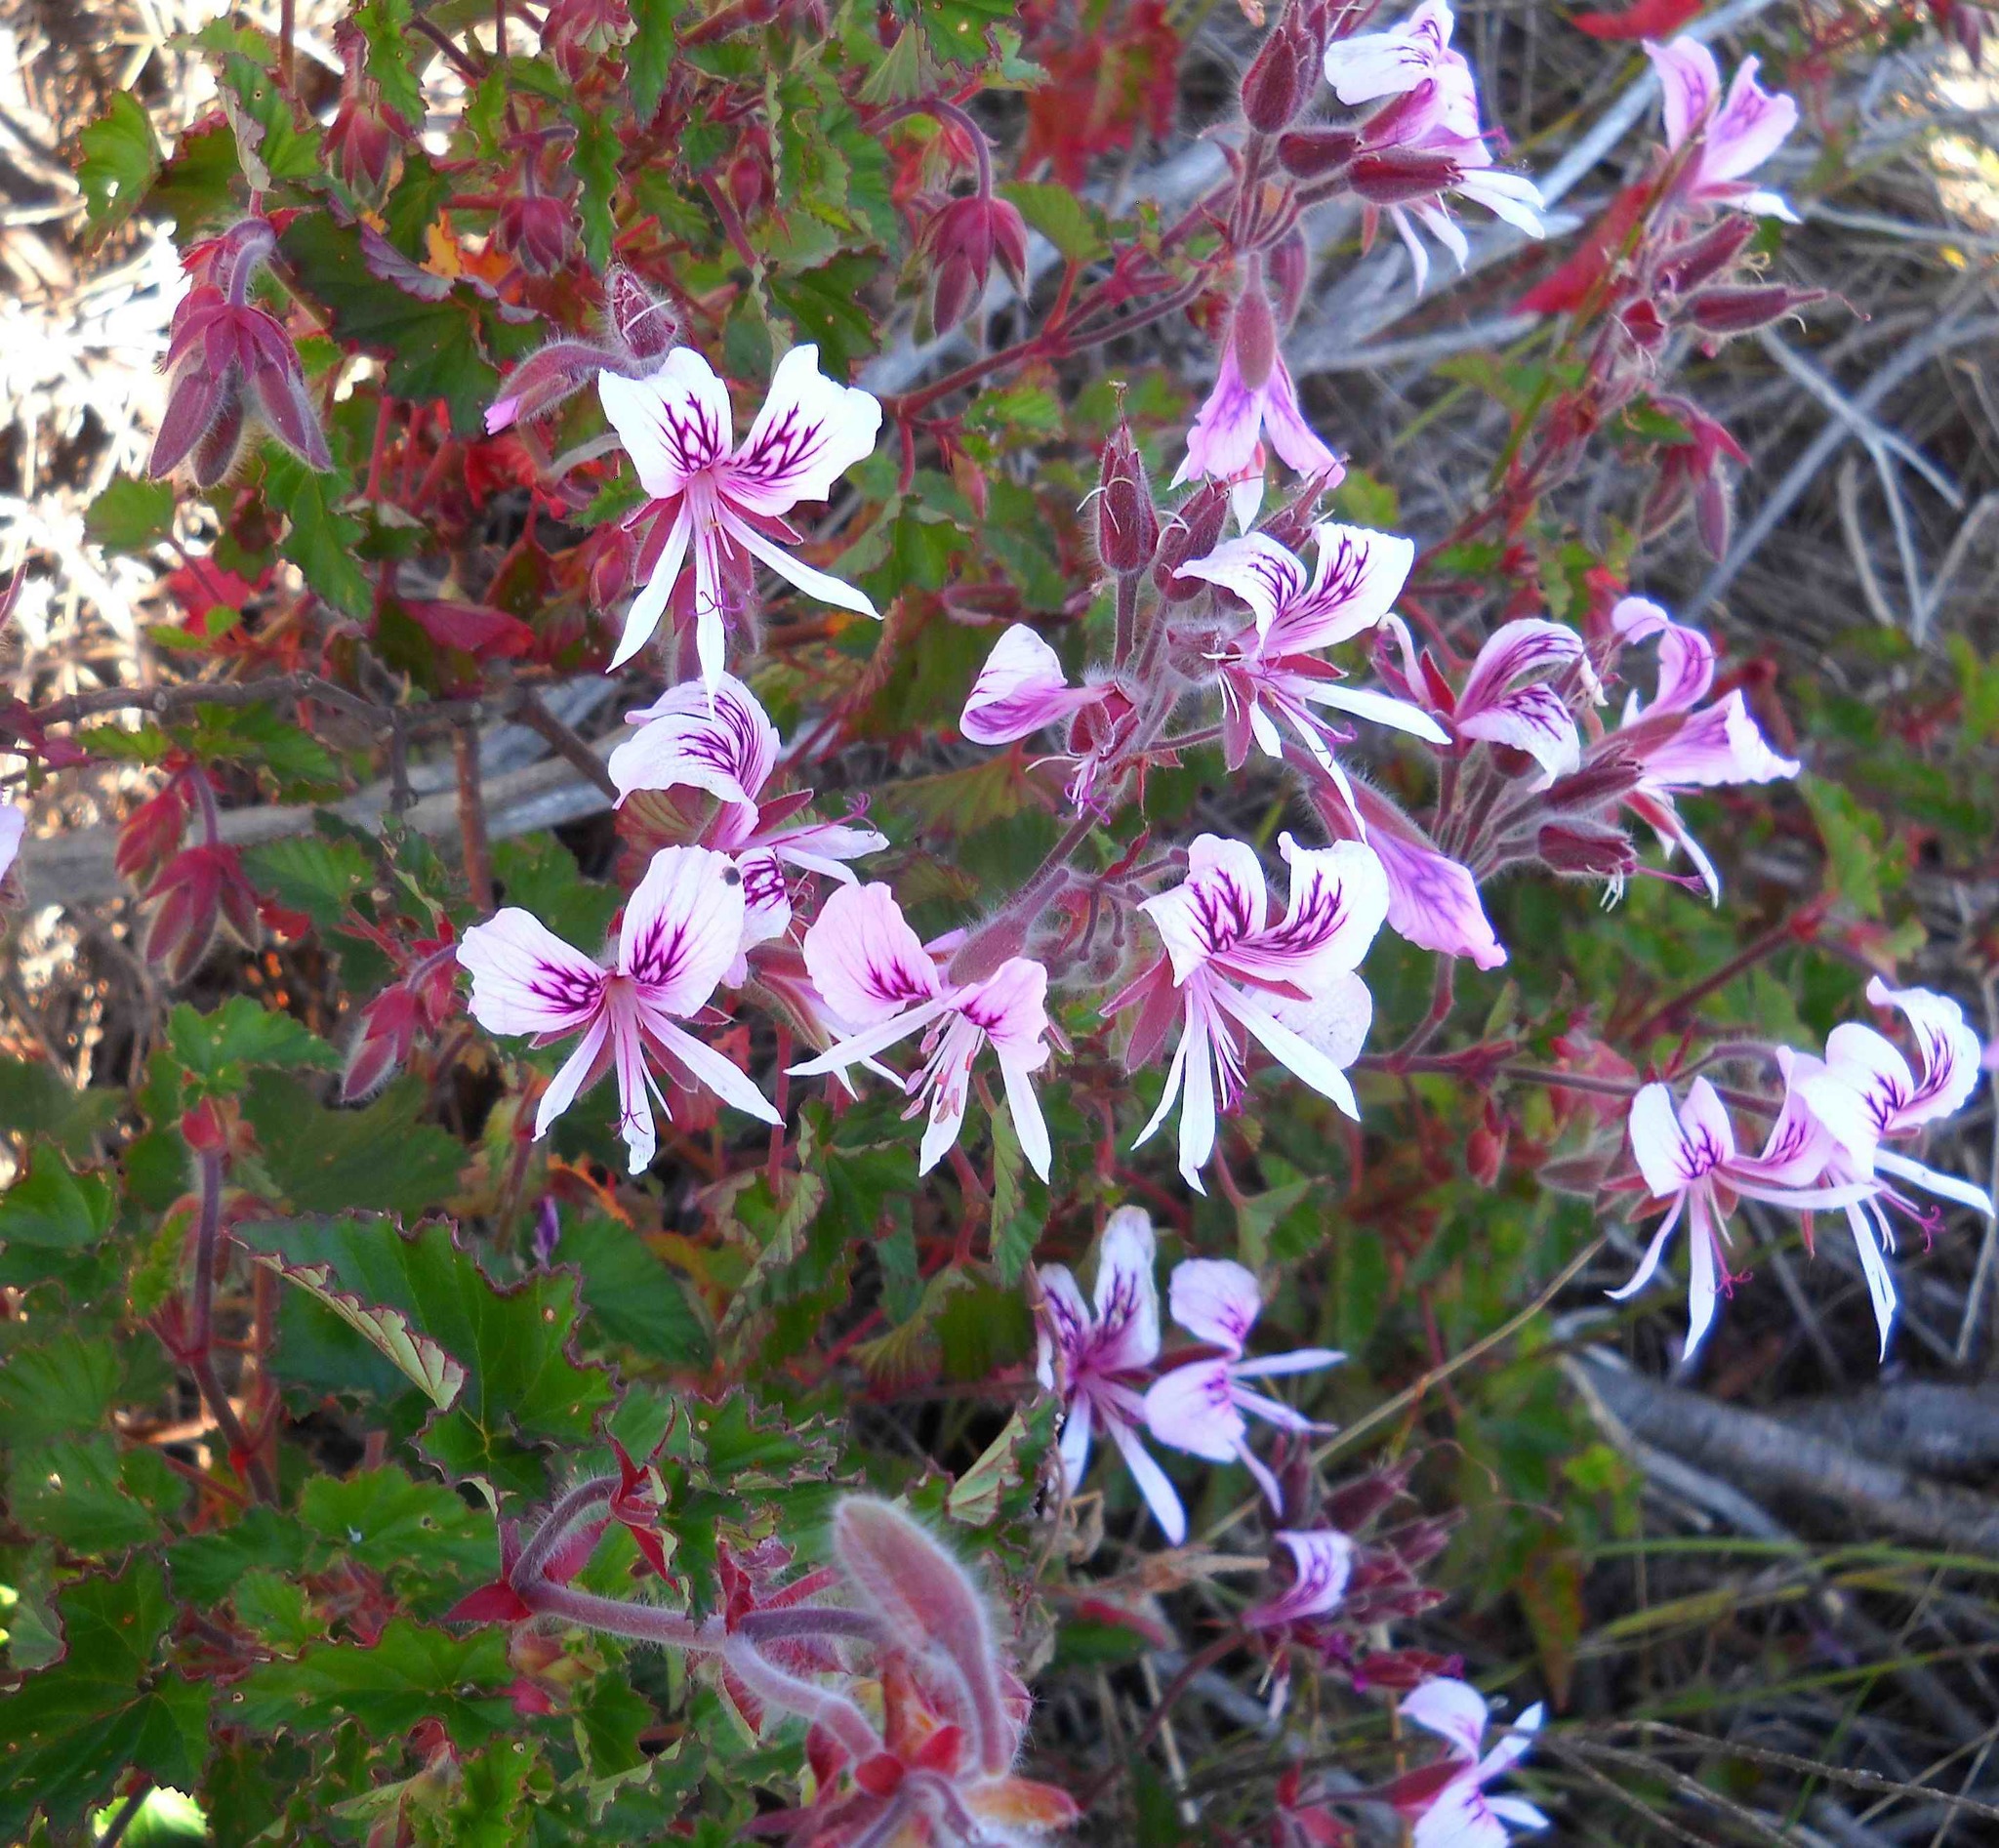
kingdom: Plantae
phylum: Tracheophyta
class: Magnoliopsida
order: Geraniales
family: Geraniaceae
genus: Pelargonium
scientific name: Pelargonium cordifolium
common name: Heart-leaf pelargonium
